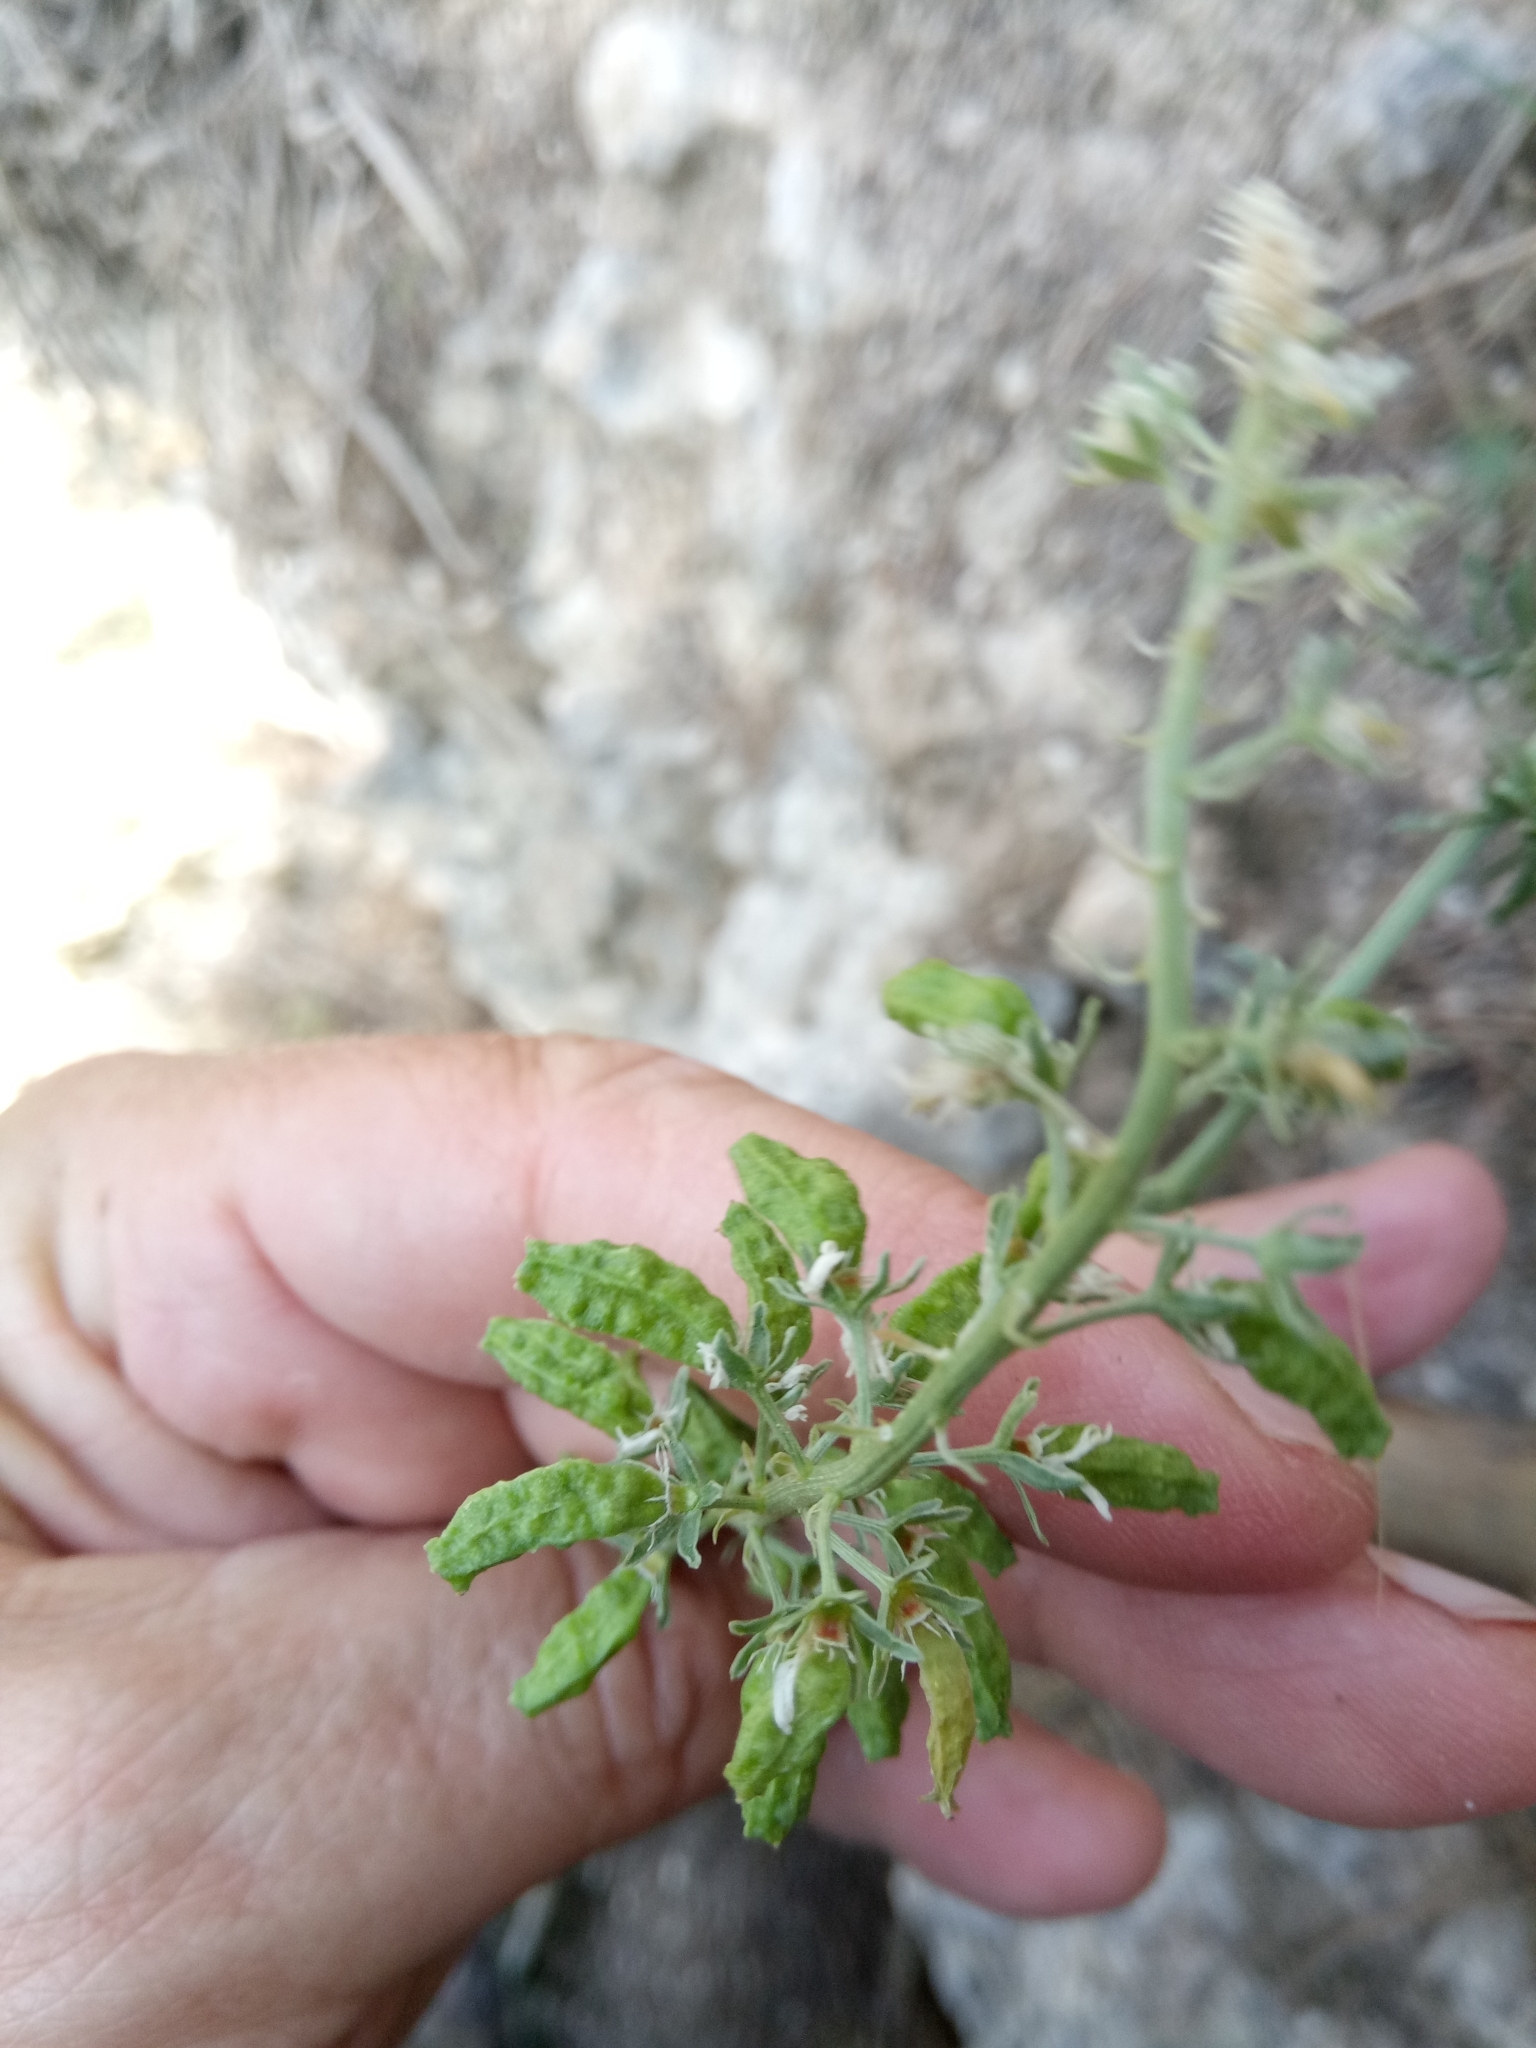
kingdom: Plantae
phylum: Tracheophyta
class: Magnoliopsida
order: Brassicales
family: Resedaceae
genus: Reseda
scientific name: Reseda alba
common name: White mignonette
